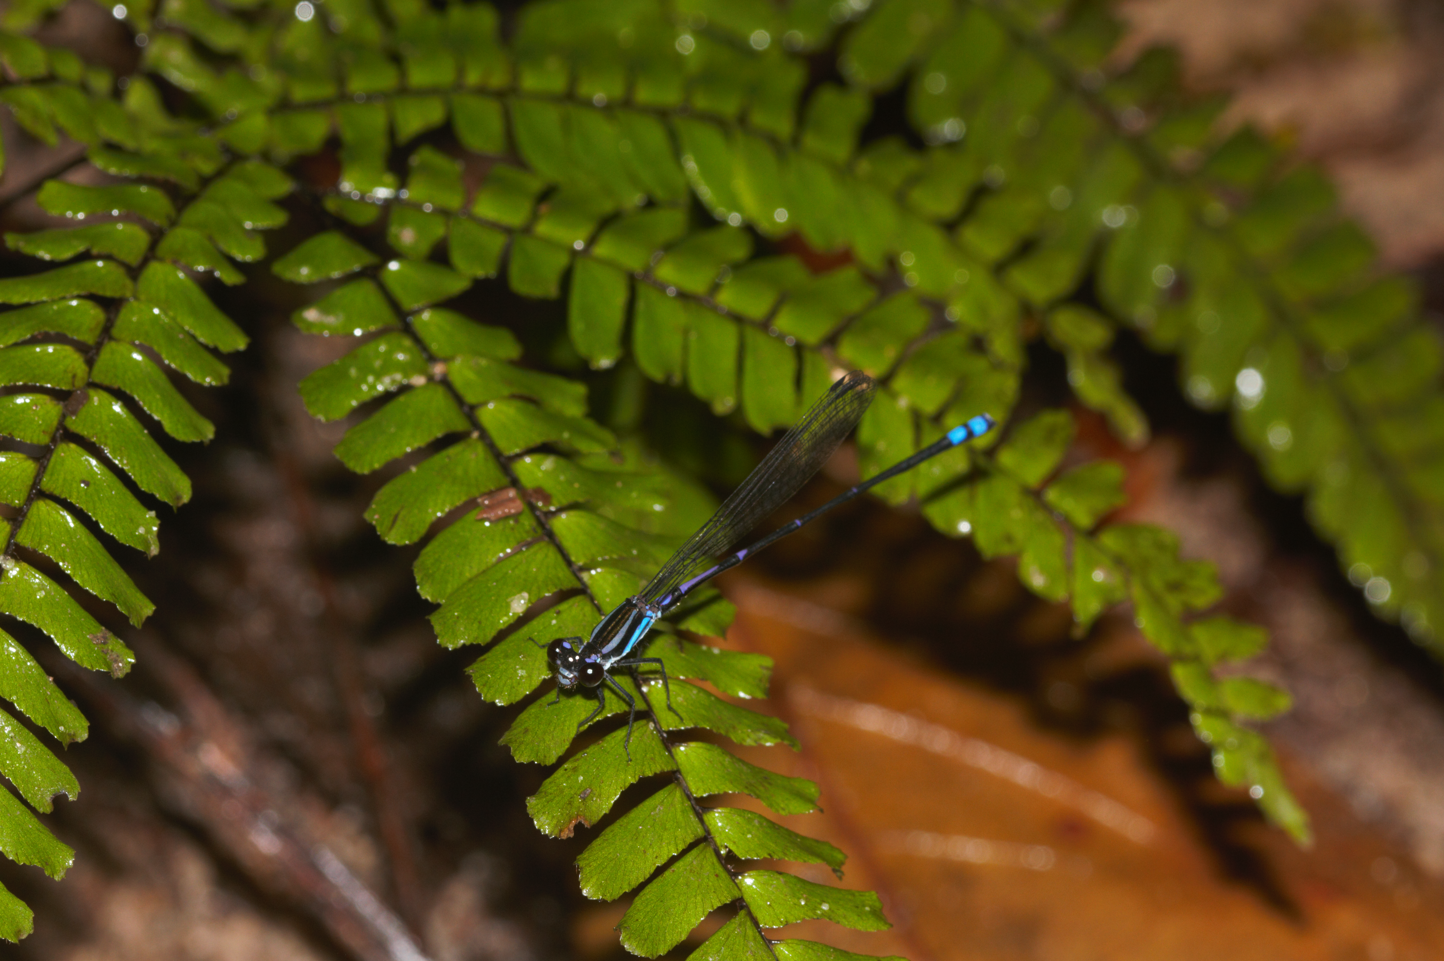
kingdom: Animalia
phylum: Arthropoda
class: Insecta
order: Odonata
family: Coenagrionidae
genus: Argia
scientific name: Argia deceptor
